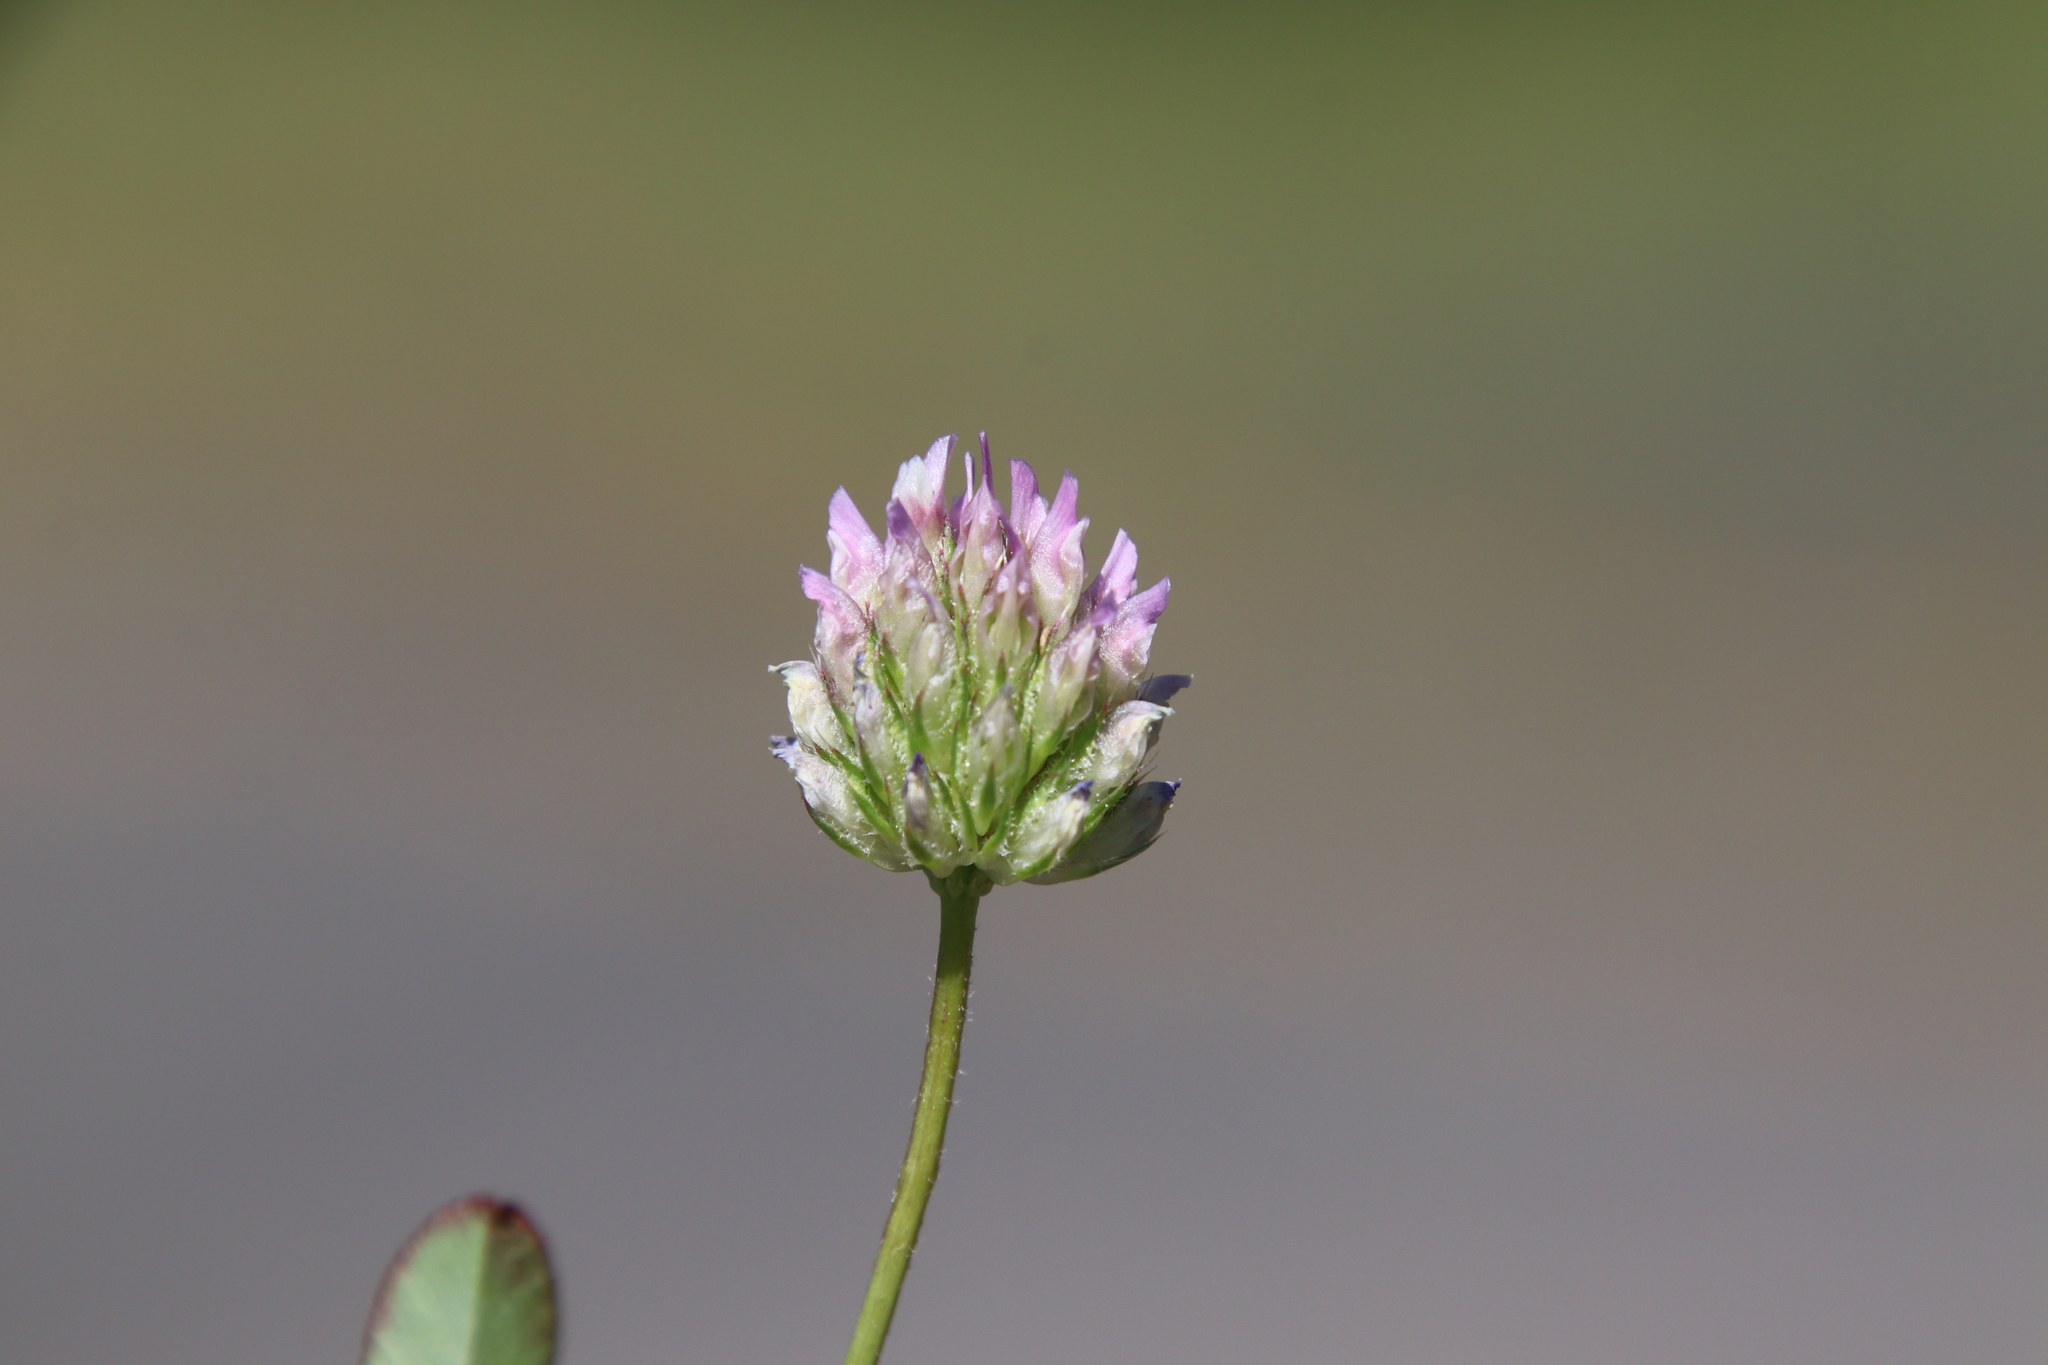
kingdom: Plantae
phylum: Tracheophyta
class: Magnoliopsida
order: Fabales
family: Fabaceae
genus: Trifolium
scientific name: Trifolium ciliolatum
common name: Foothill clover
